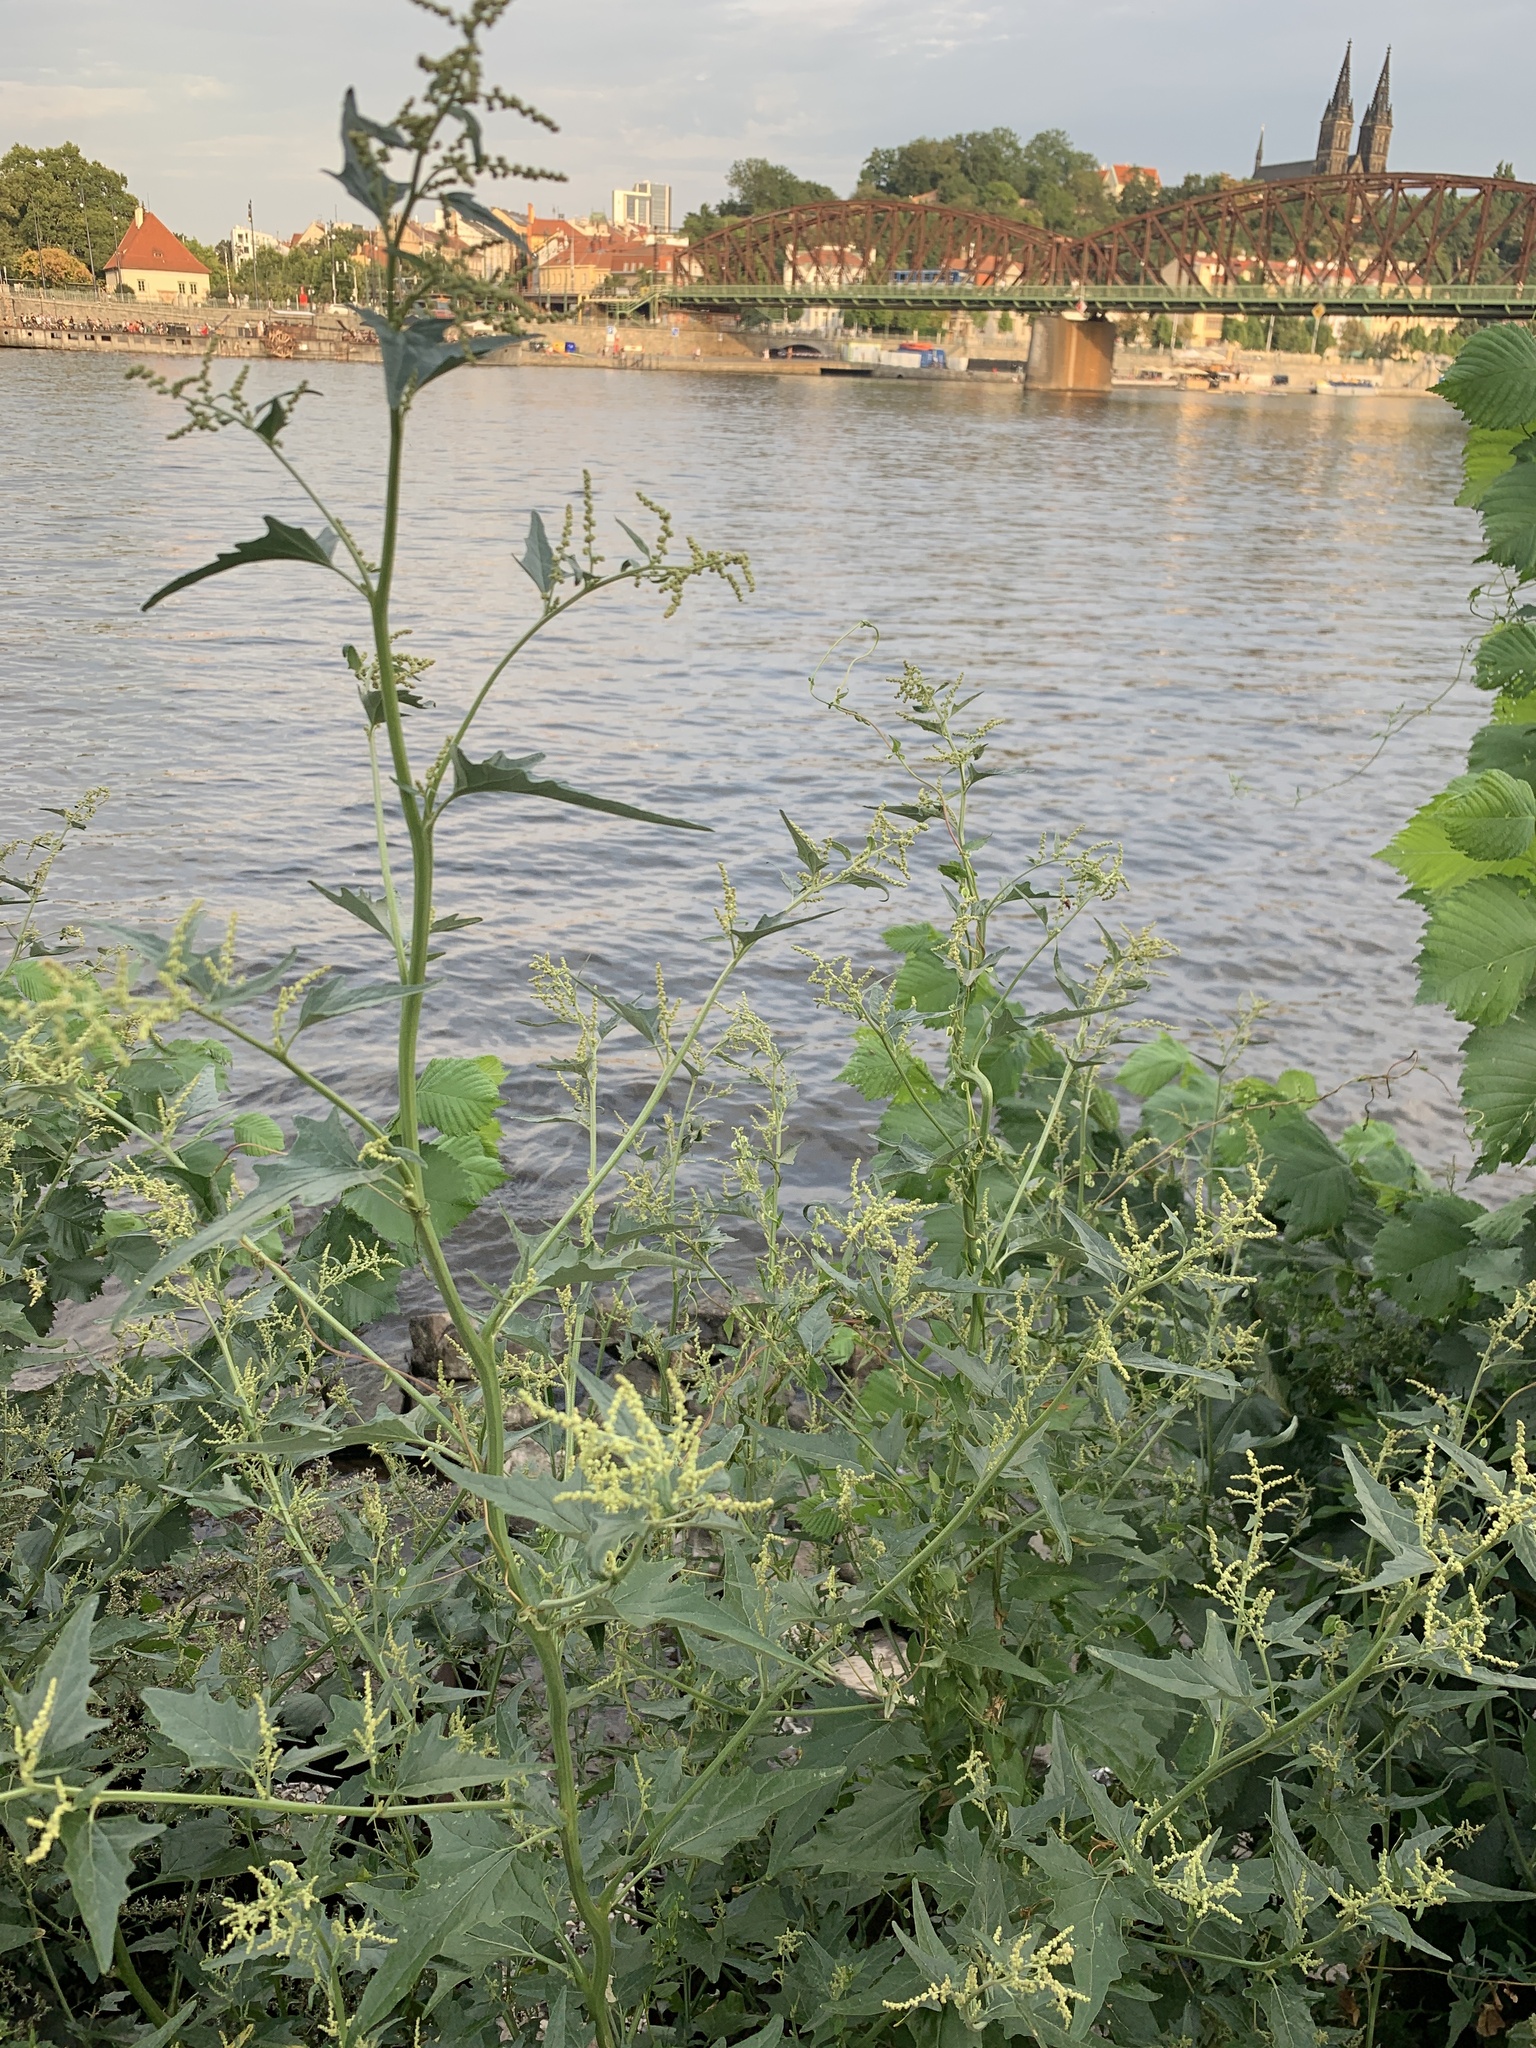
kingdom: Plantae
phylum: Tracheophyta
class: Magnoliopsida
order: Caryophyllales
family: Amaranthaceae
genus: Atriplex
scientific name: Atriplex sagittata
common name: Purple orache
